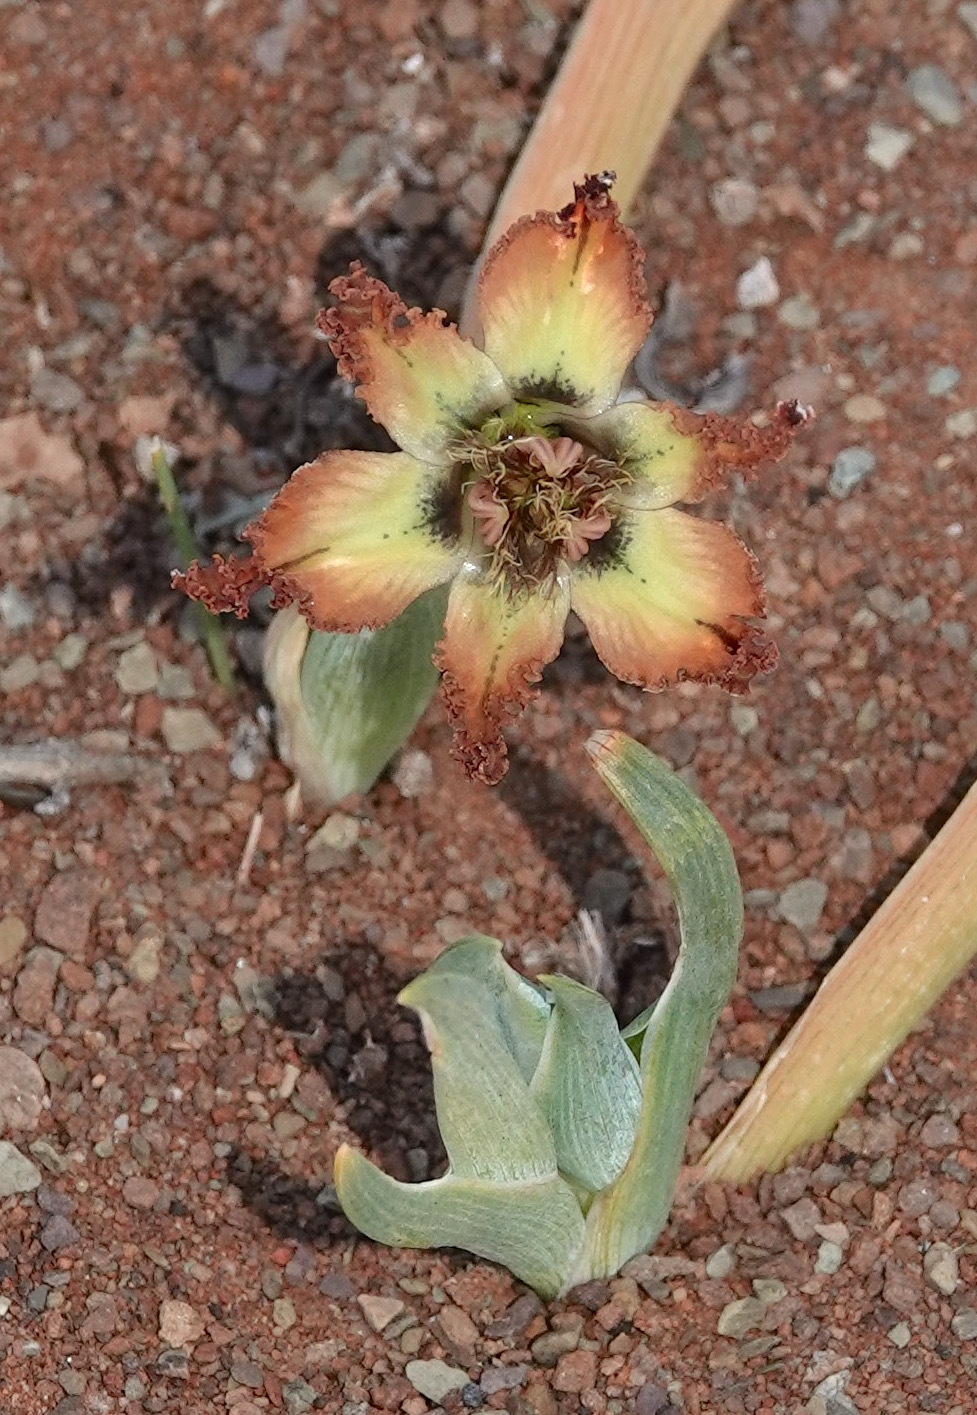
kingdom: Plantae
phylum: Tracheophyta
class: Liliopsida
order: Asparagales
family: Iridaceae
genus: Ferraria
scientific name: Ferraria variabilis
